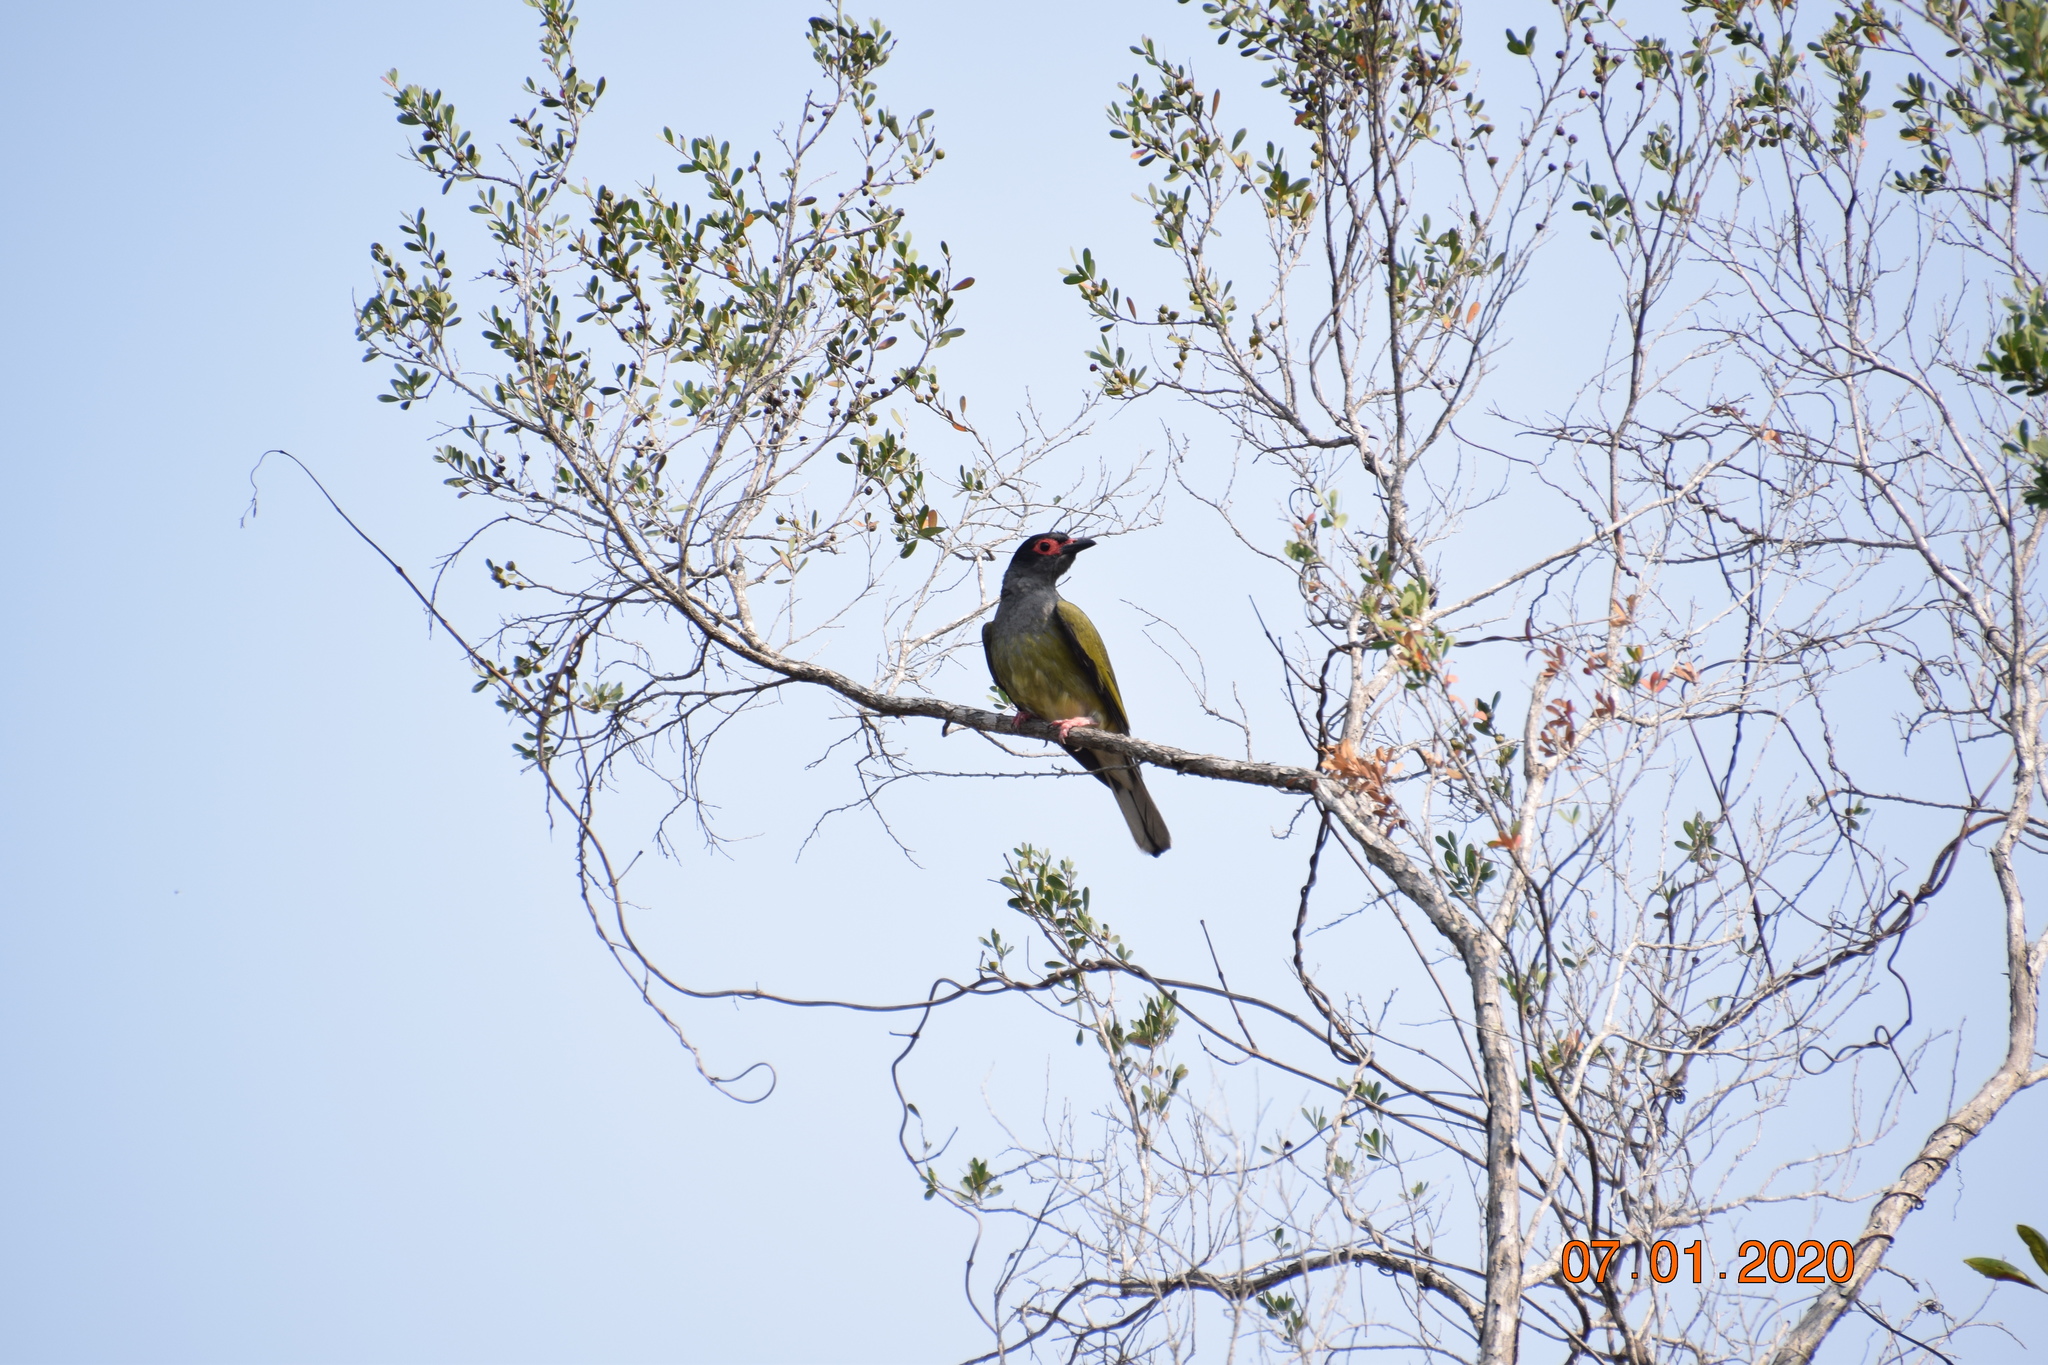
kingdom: Animalia
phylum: Chordata
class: Aves
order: Passeriformes
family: Oriolidae
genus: Sphecotheres
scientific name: Sphecotheres vieilloti
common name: Australasian figbird
